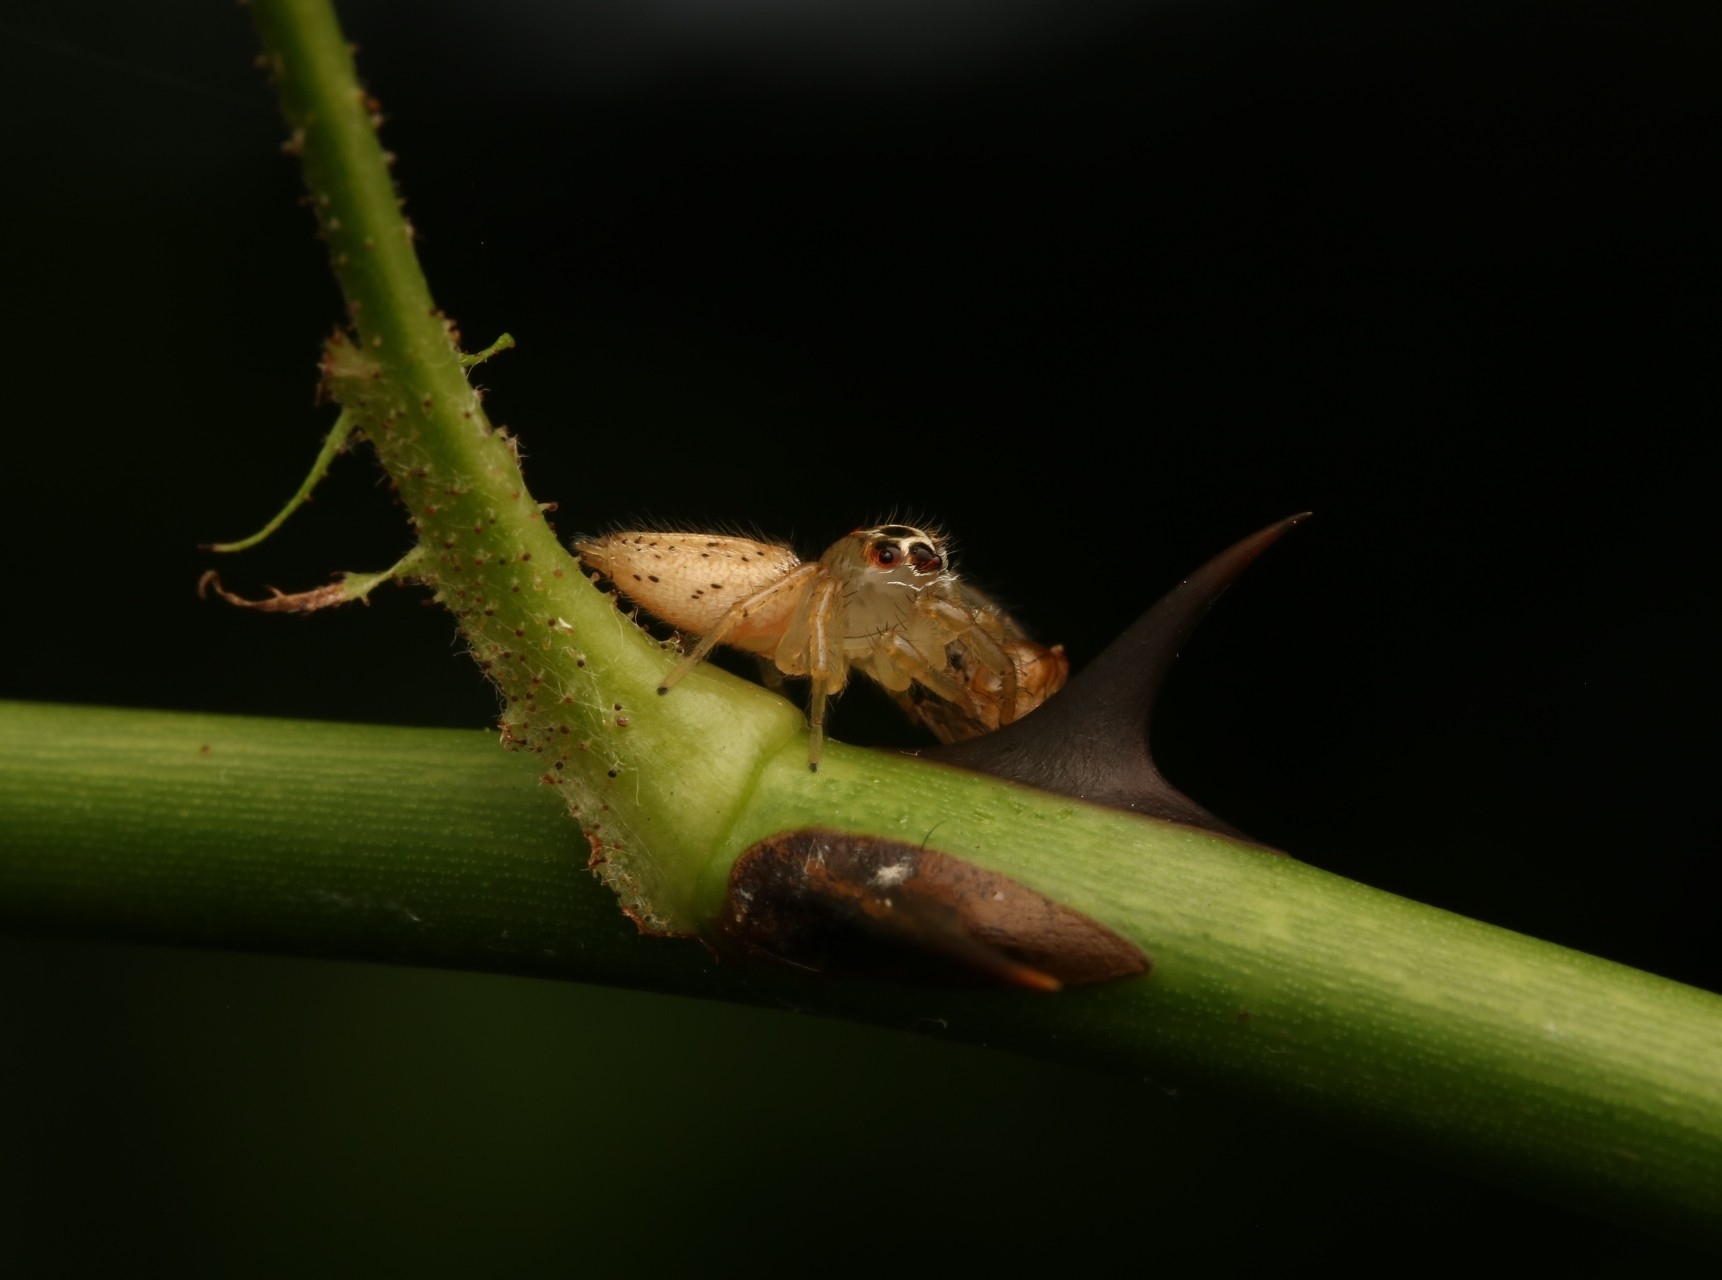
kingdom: Animalia
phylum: Arthropoda
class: Arachnida
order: Araneae
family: Salticidae
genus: Colonus
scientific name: Colonus sylvanus
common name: Jumping spiders
